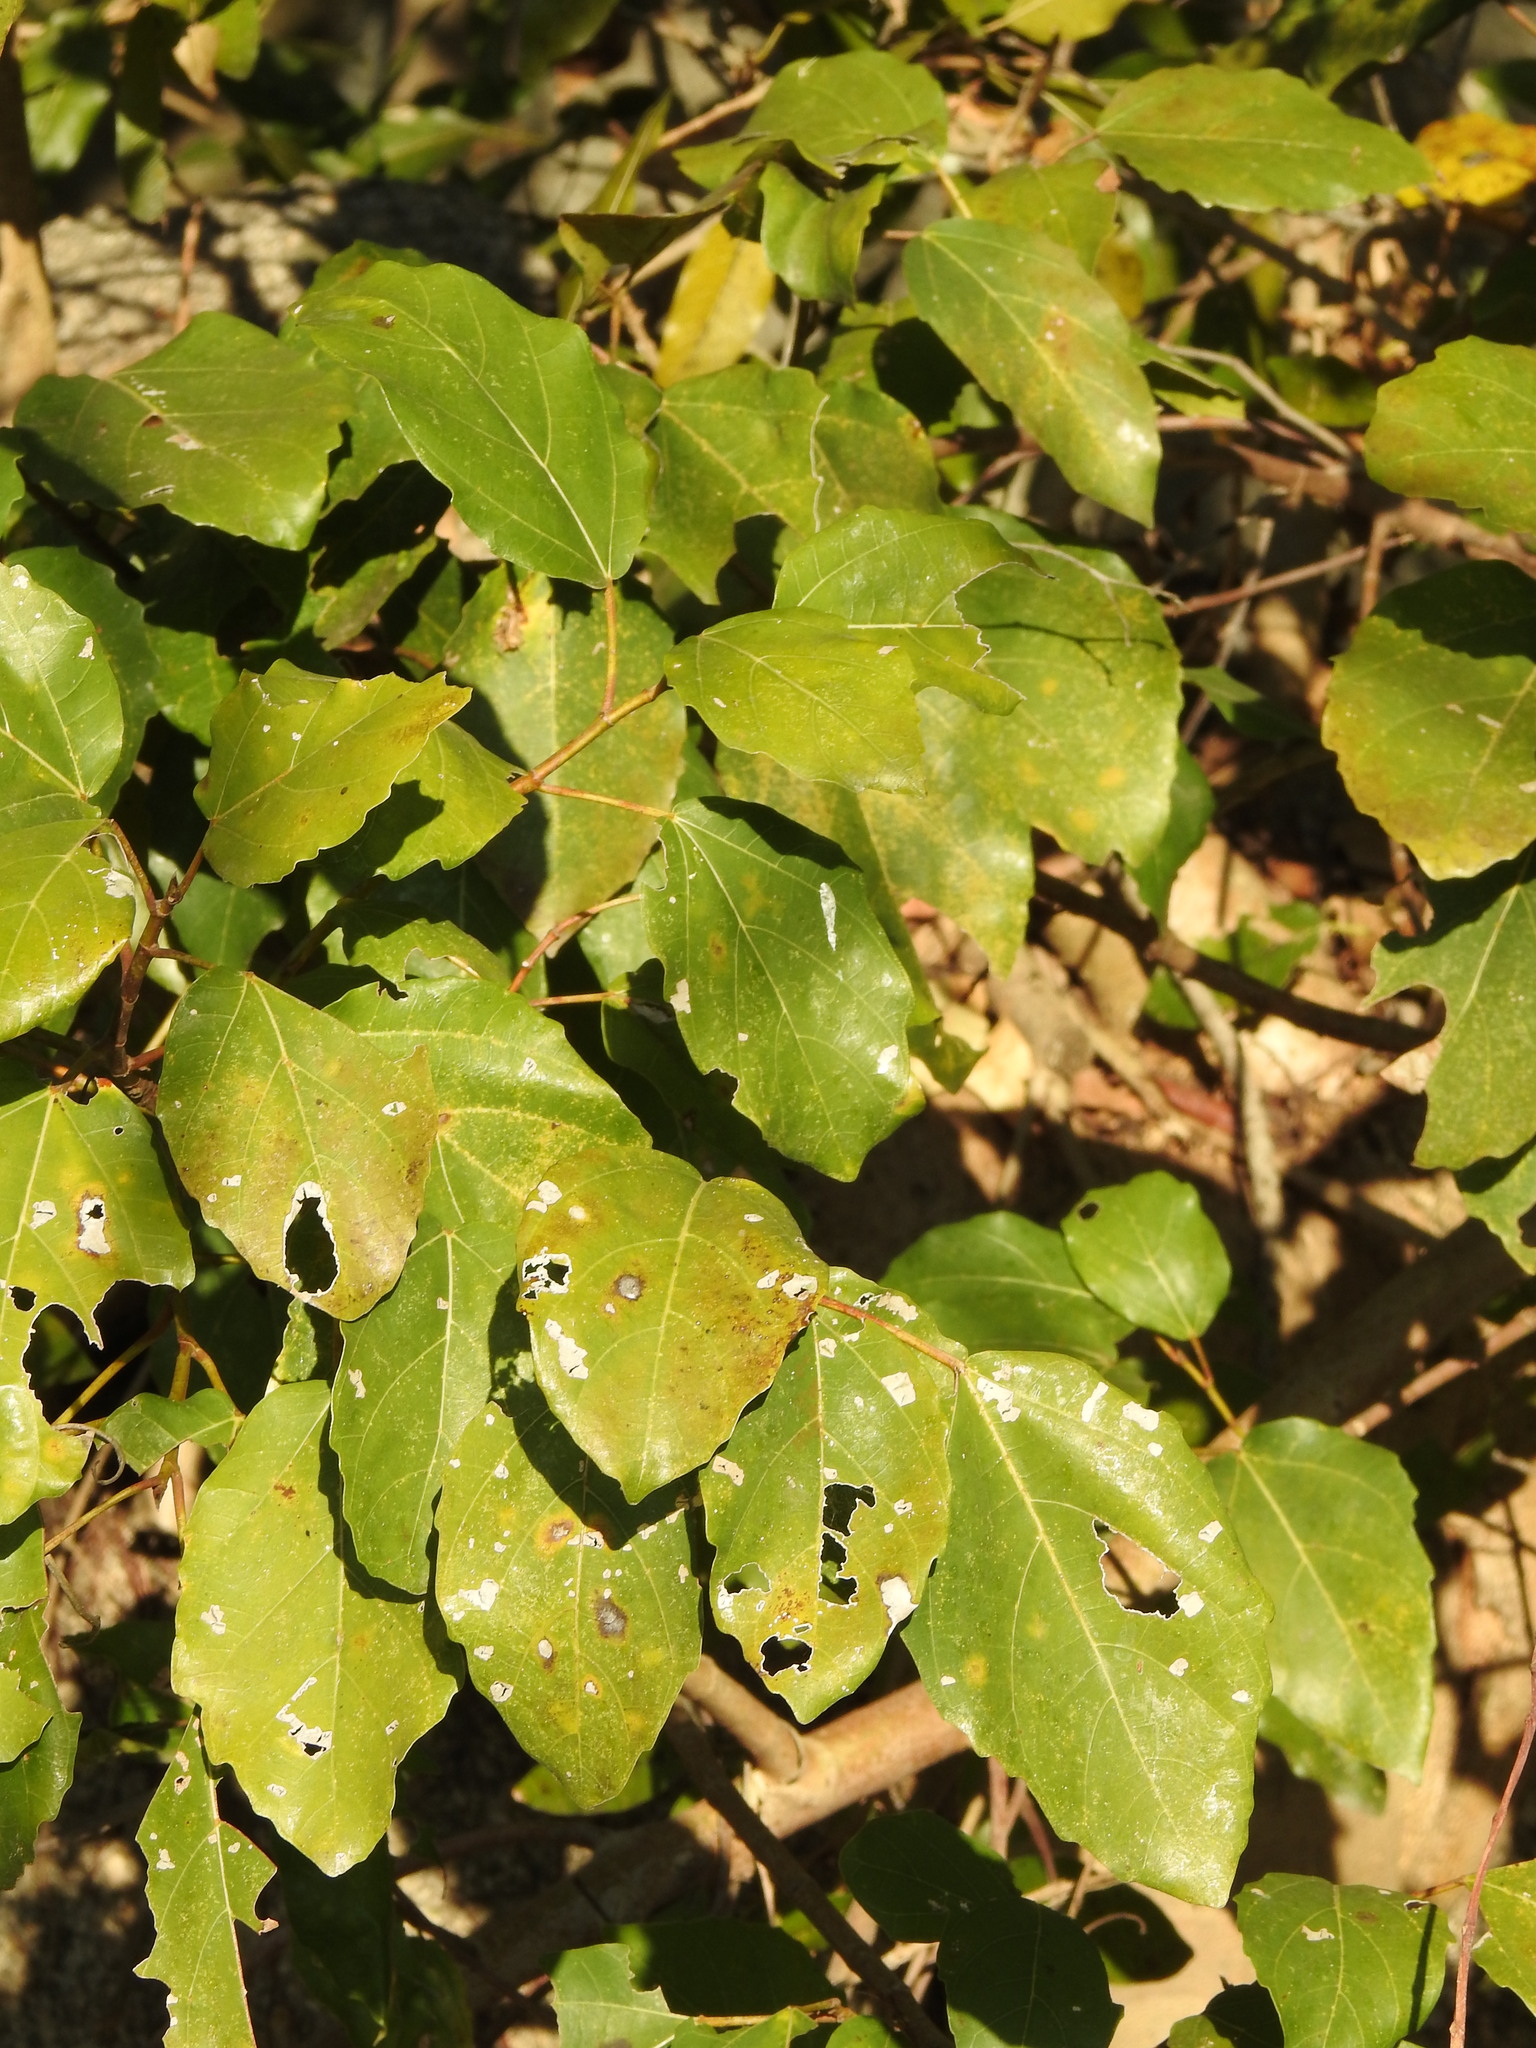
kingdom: Plantae
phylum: Tracheophyta
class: Magnoliopsida
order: Rosales
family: Moraceae
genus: Ficus
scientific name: Ficus sur
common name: Cape fig
